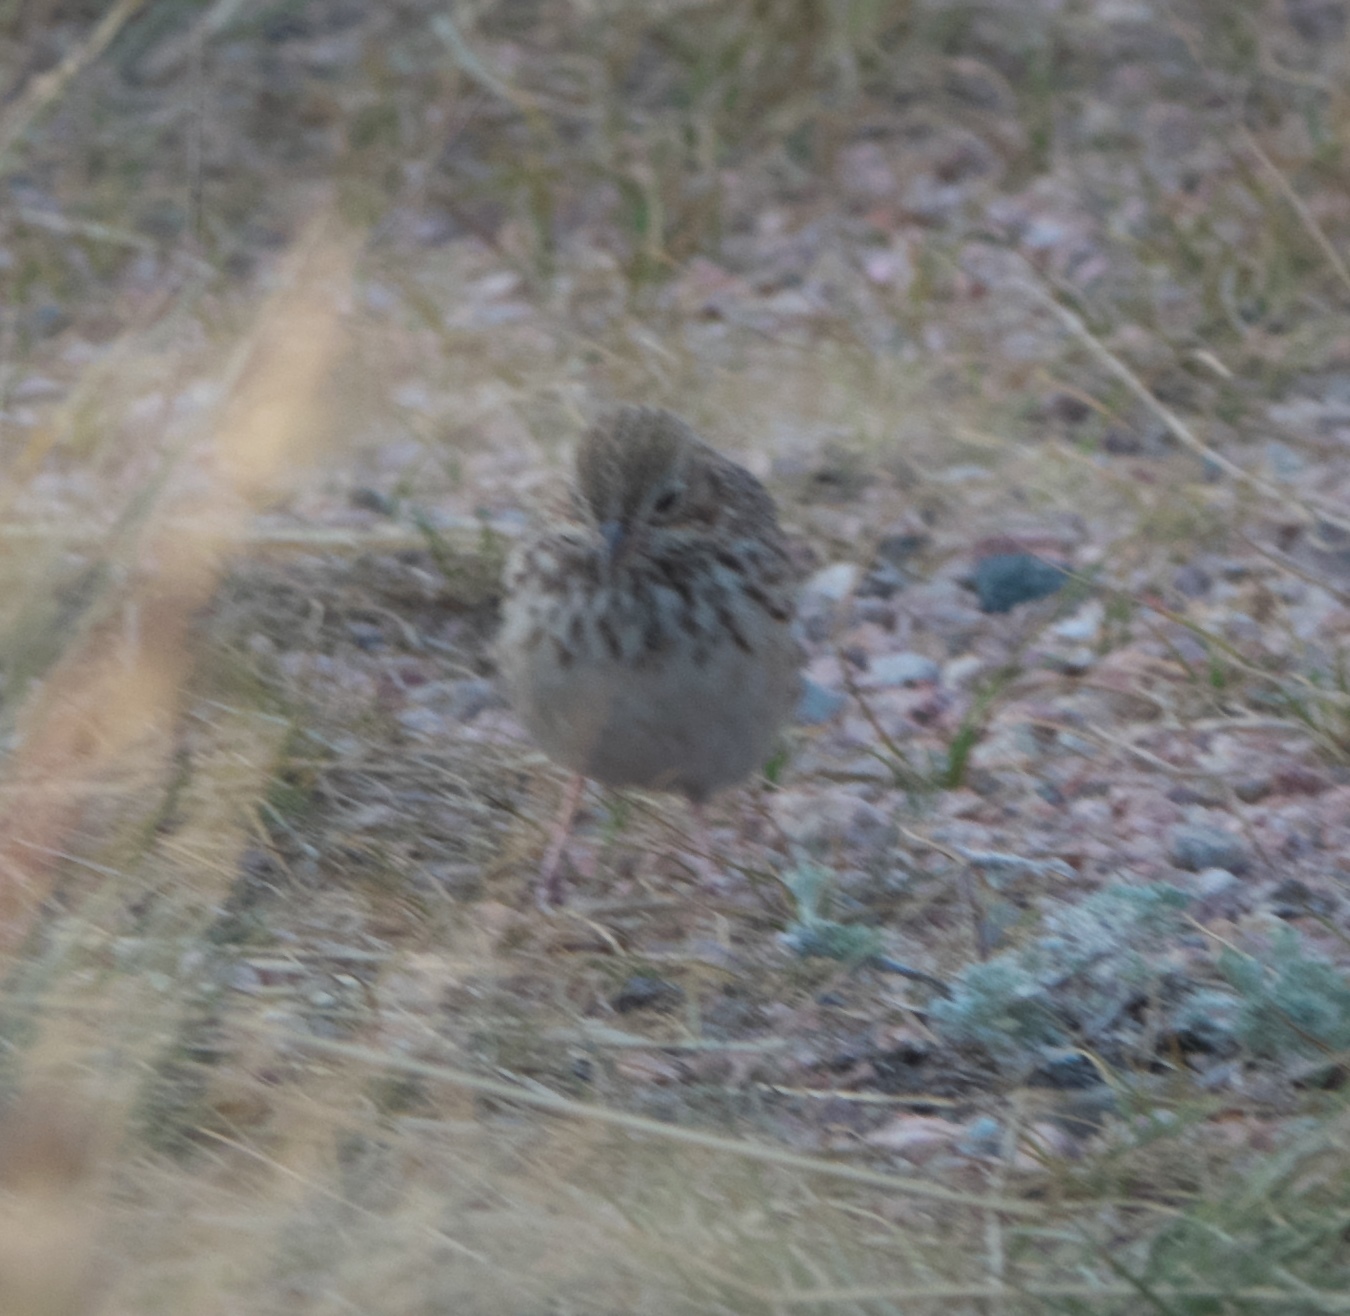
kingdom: Animalia
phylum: Chordata
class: Aves
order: Passeriformes
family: Passerellidae
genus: Pooecetes
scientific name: Pooecetes gramineus
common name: Vesper sparrow
